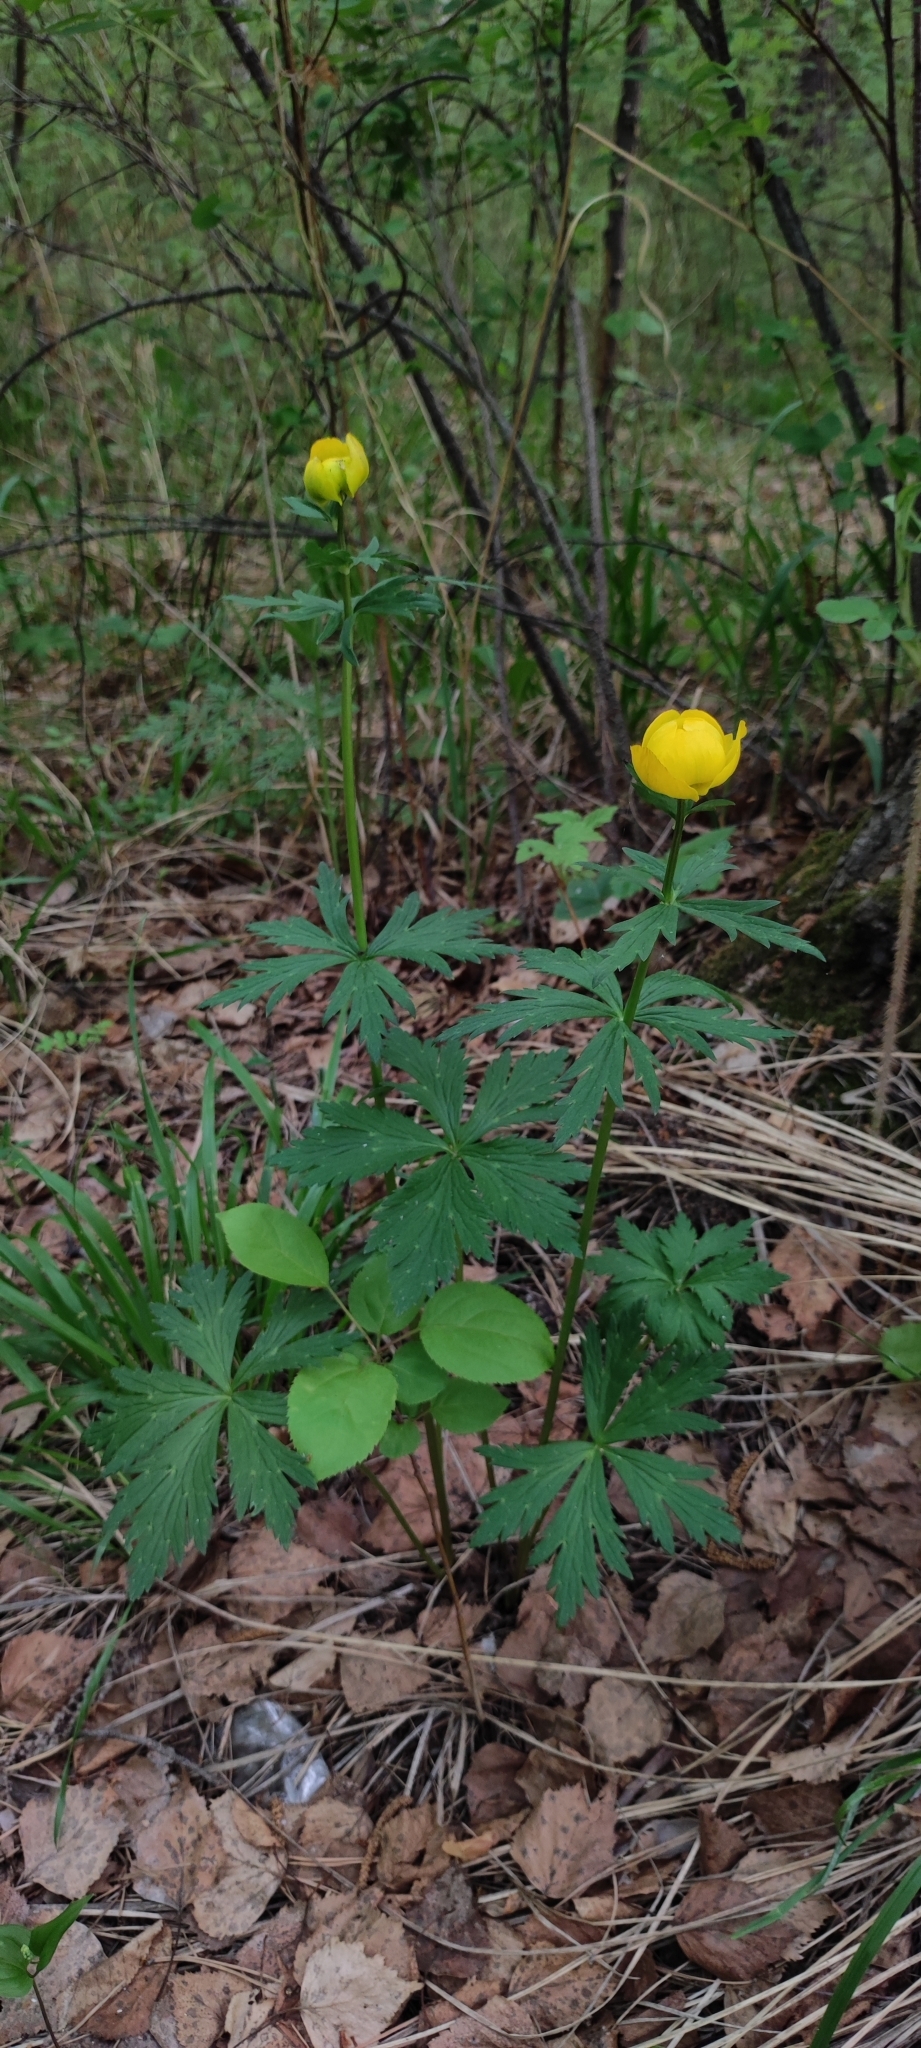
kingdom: Plantae
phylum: Tracheophyta
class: Magnoliopsida
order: Ranunculales
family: Ranunculaceae
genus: Trollius
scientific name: Trollius europaeus
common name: European globeflower
